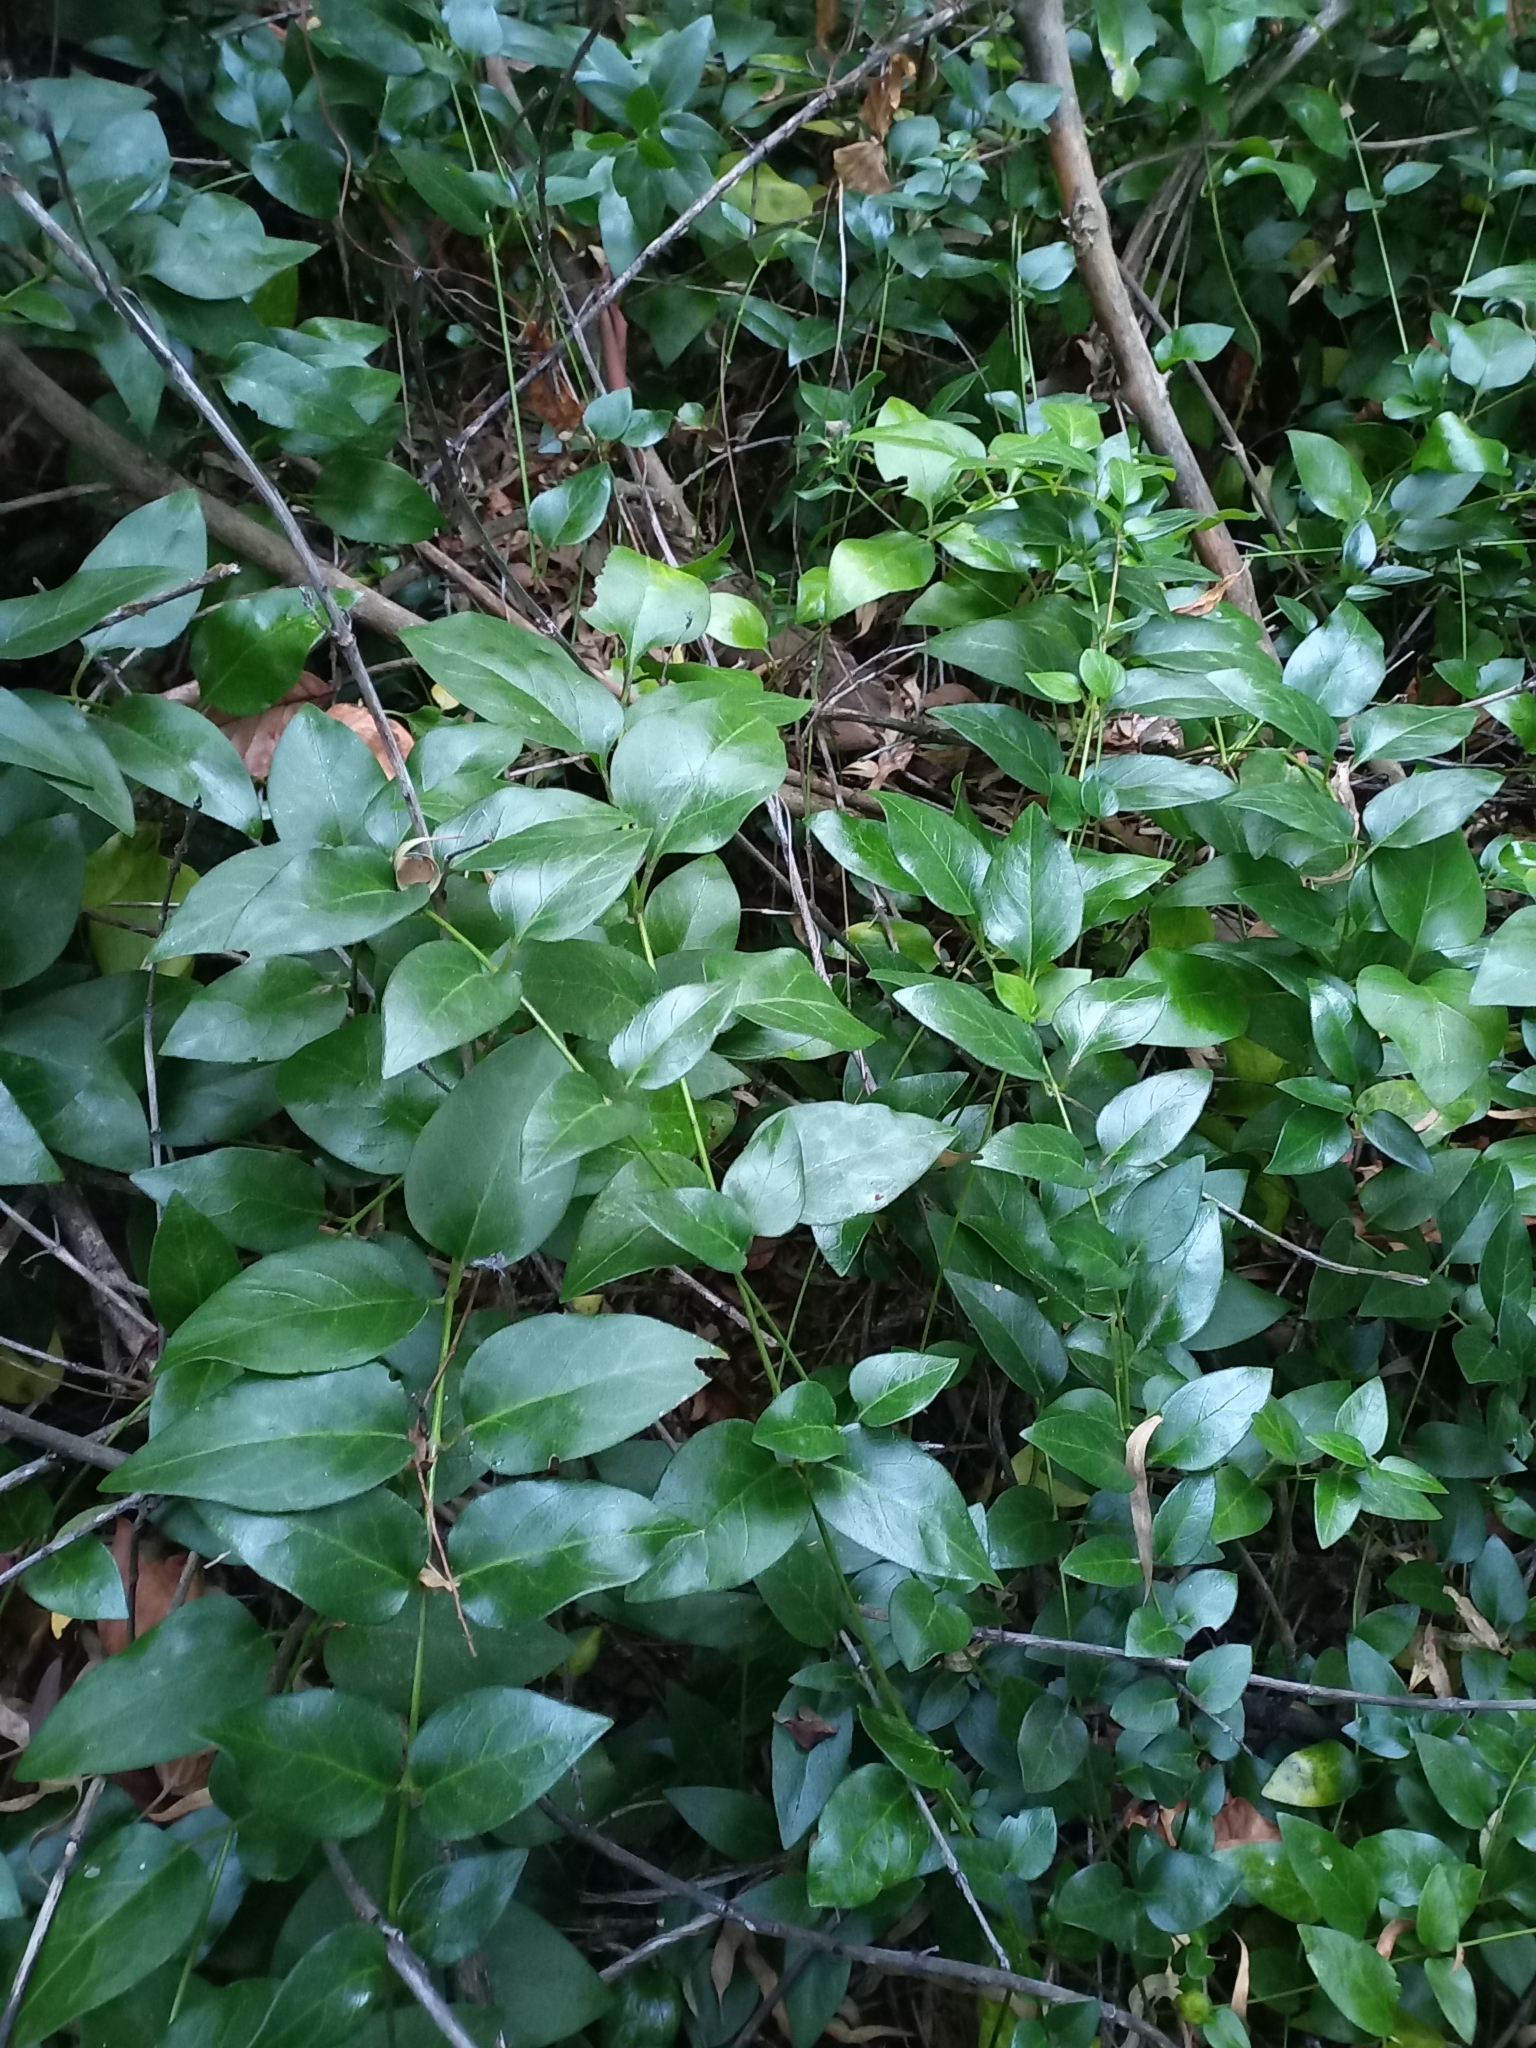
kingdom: Plantae
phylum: Tracheophyta
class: Magnoliopsida
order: Gentianales
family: Apocynaceae
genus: Vinca
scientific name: Vinca major
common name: Greater periwinkle
